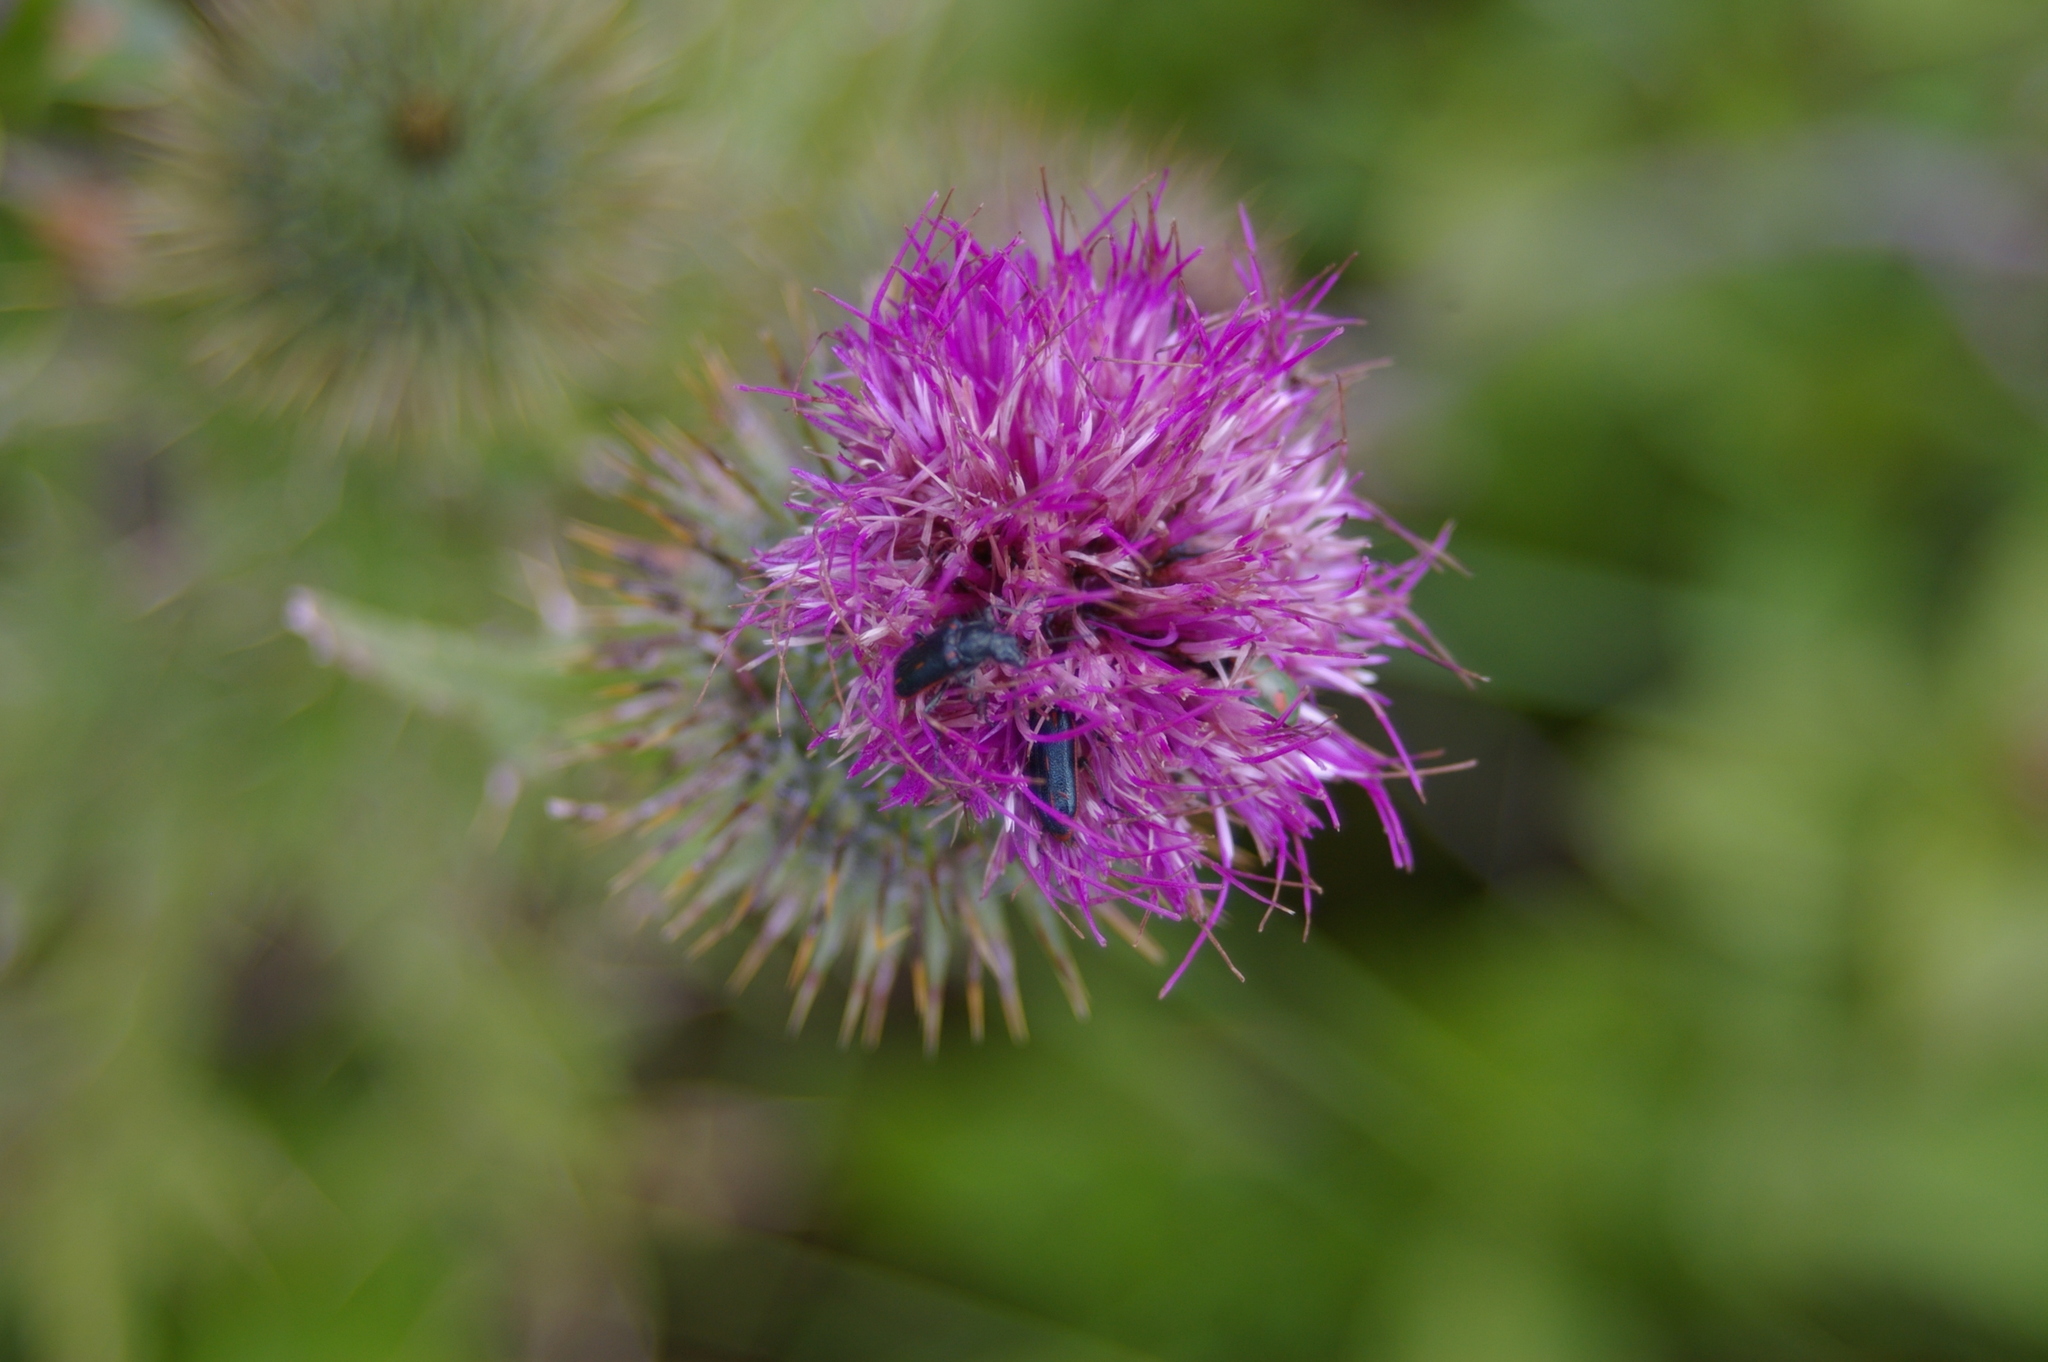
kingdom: Plantae
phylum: Tracheophyta
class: Magnoliopsida
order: Asterales
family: Asteraceae
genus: Cirsium
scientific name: Cirsium vulgare
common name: Bull thistle
